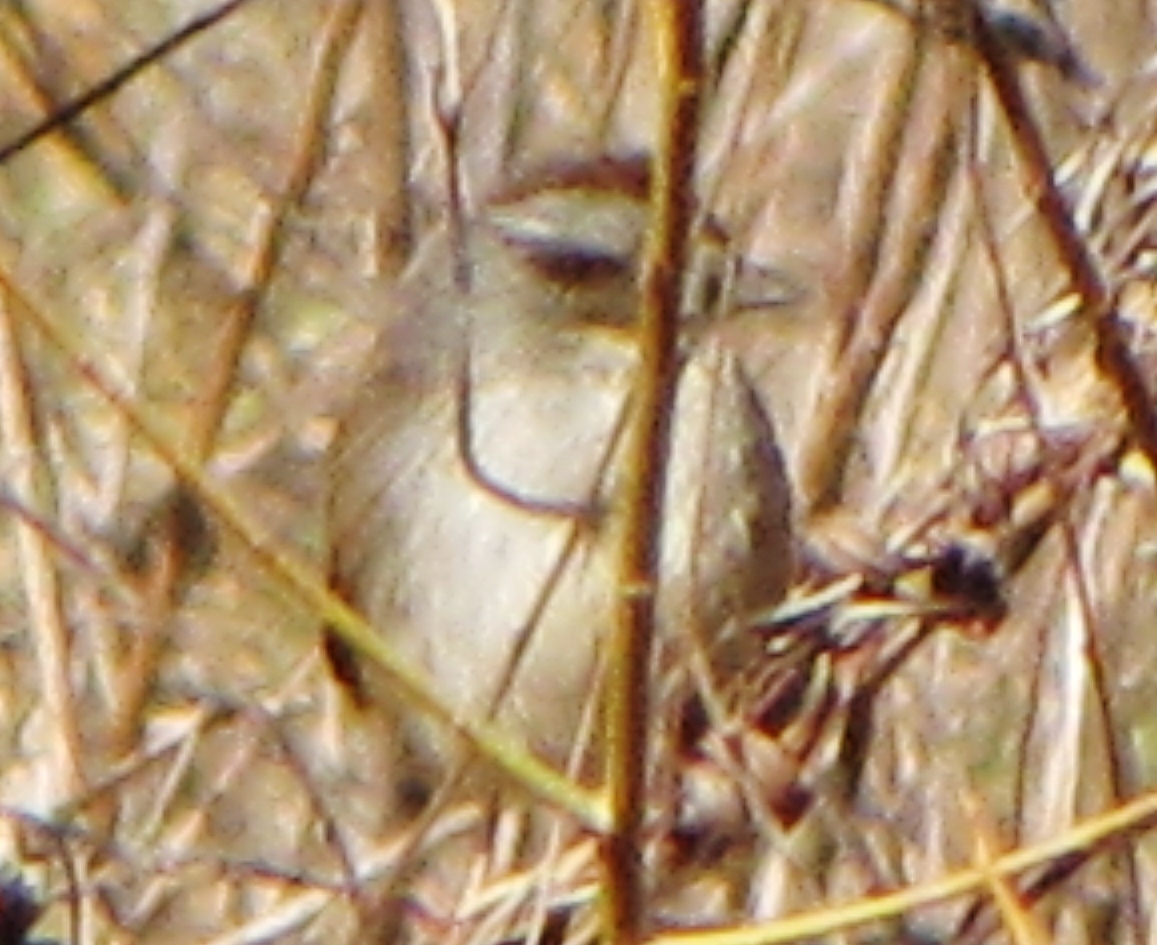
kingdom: Animalia
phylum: Chordata
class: Aves
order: Passeriformes
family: Passerellidae
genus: Melospiza
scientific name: Melospiza georgiana
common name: Swamp sparrow
